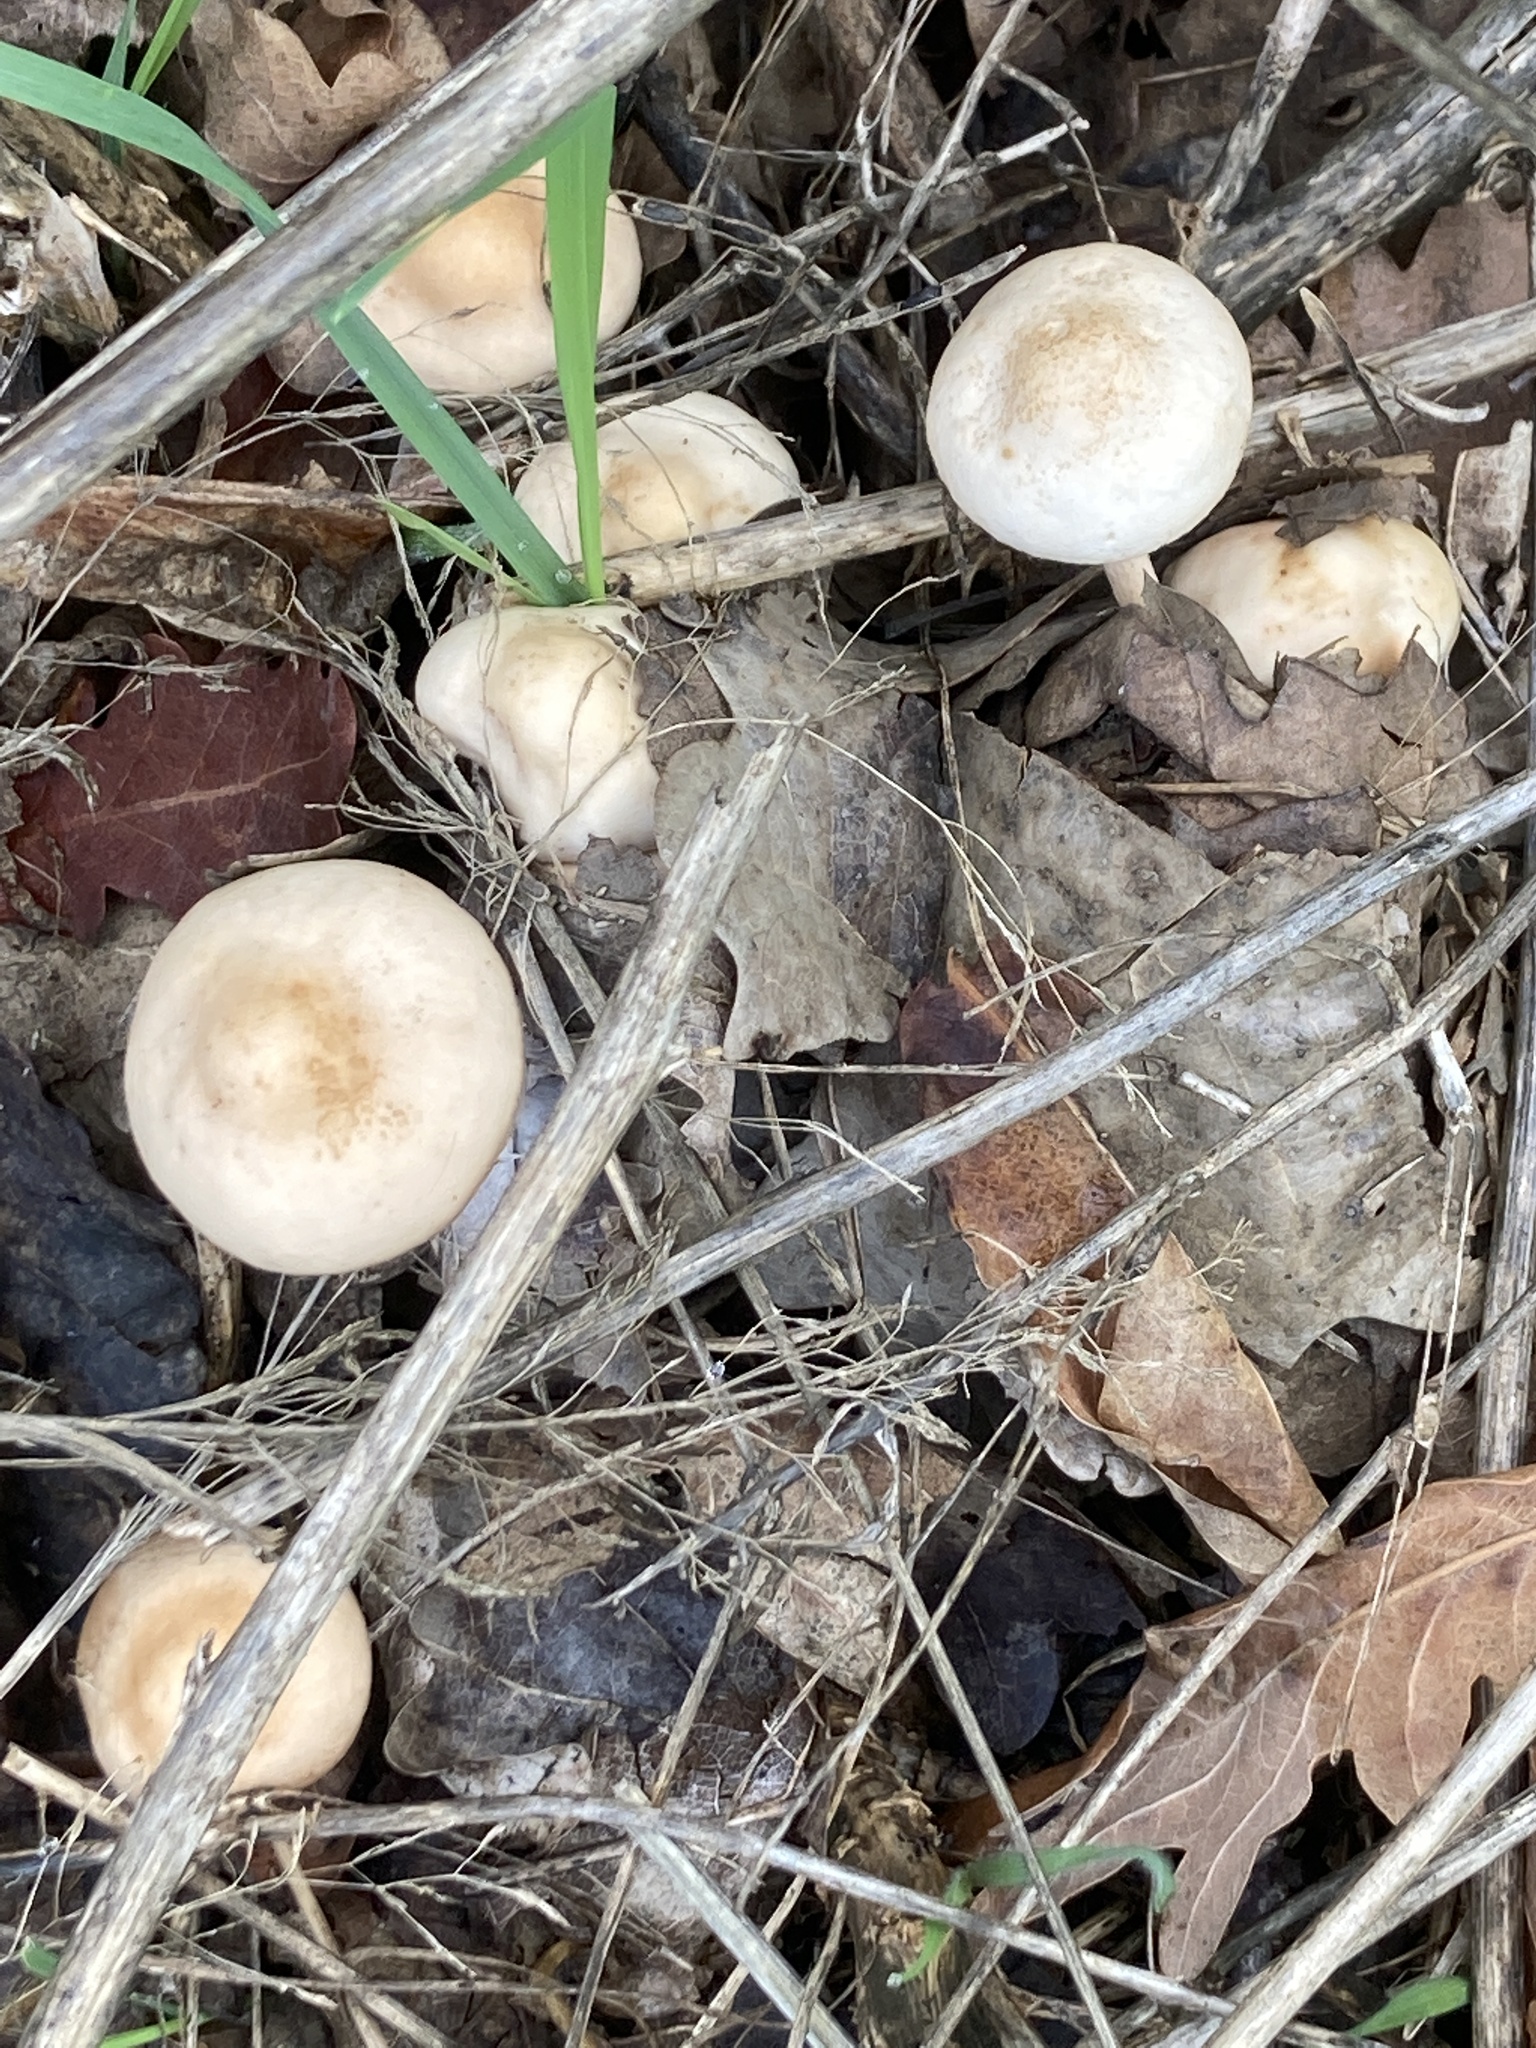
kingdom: Fungi
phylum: Basidiomycota
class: Agaricomycetes
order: Agaricales
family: Marasmiaceae
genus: Marasmius
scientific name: Marasmius oreades
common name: Fairy ring champignon
